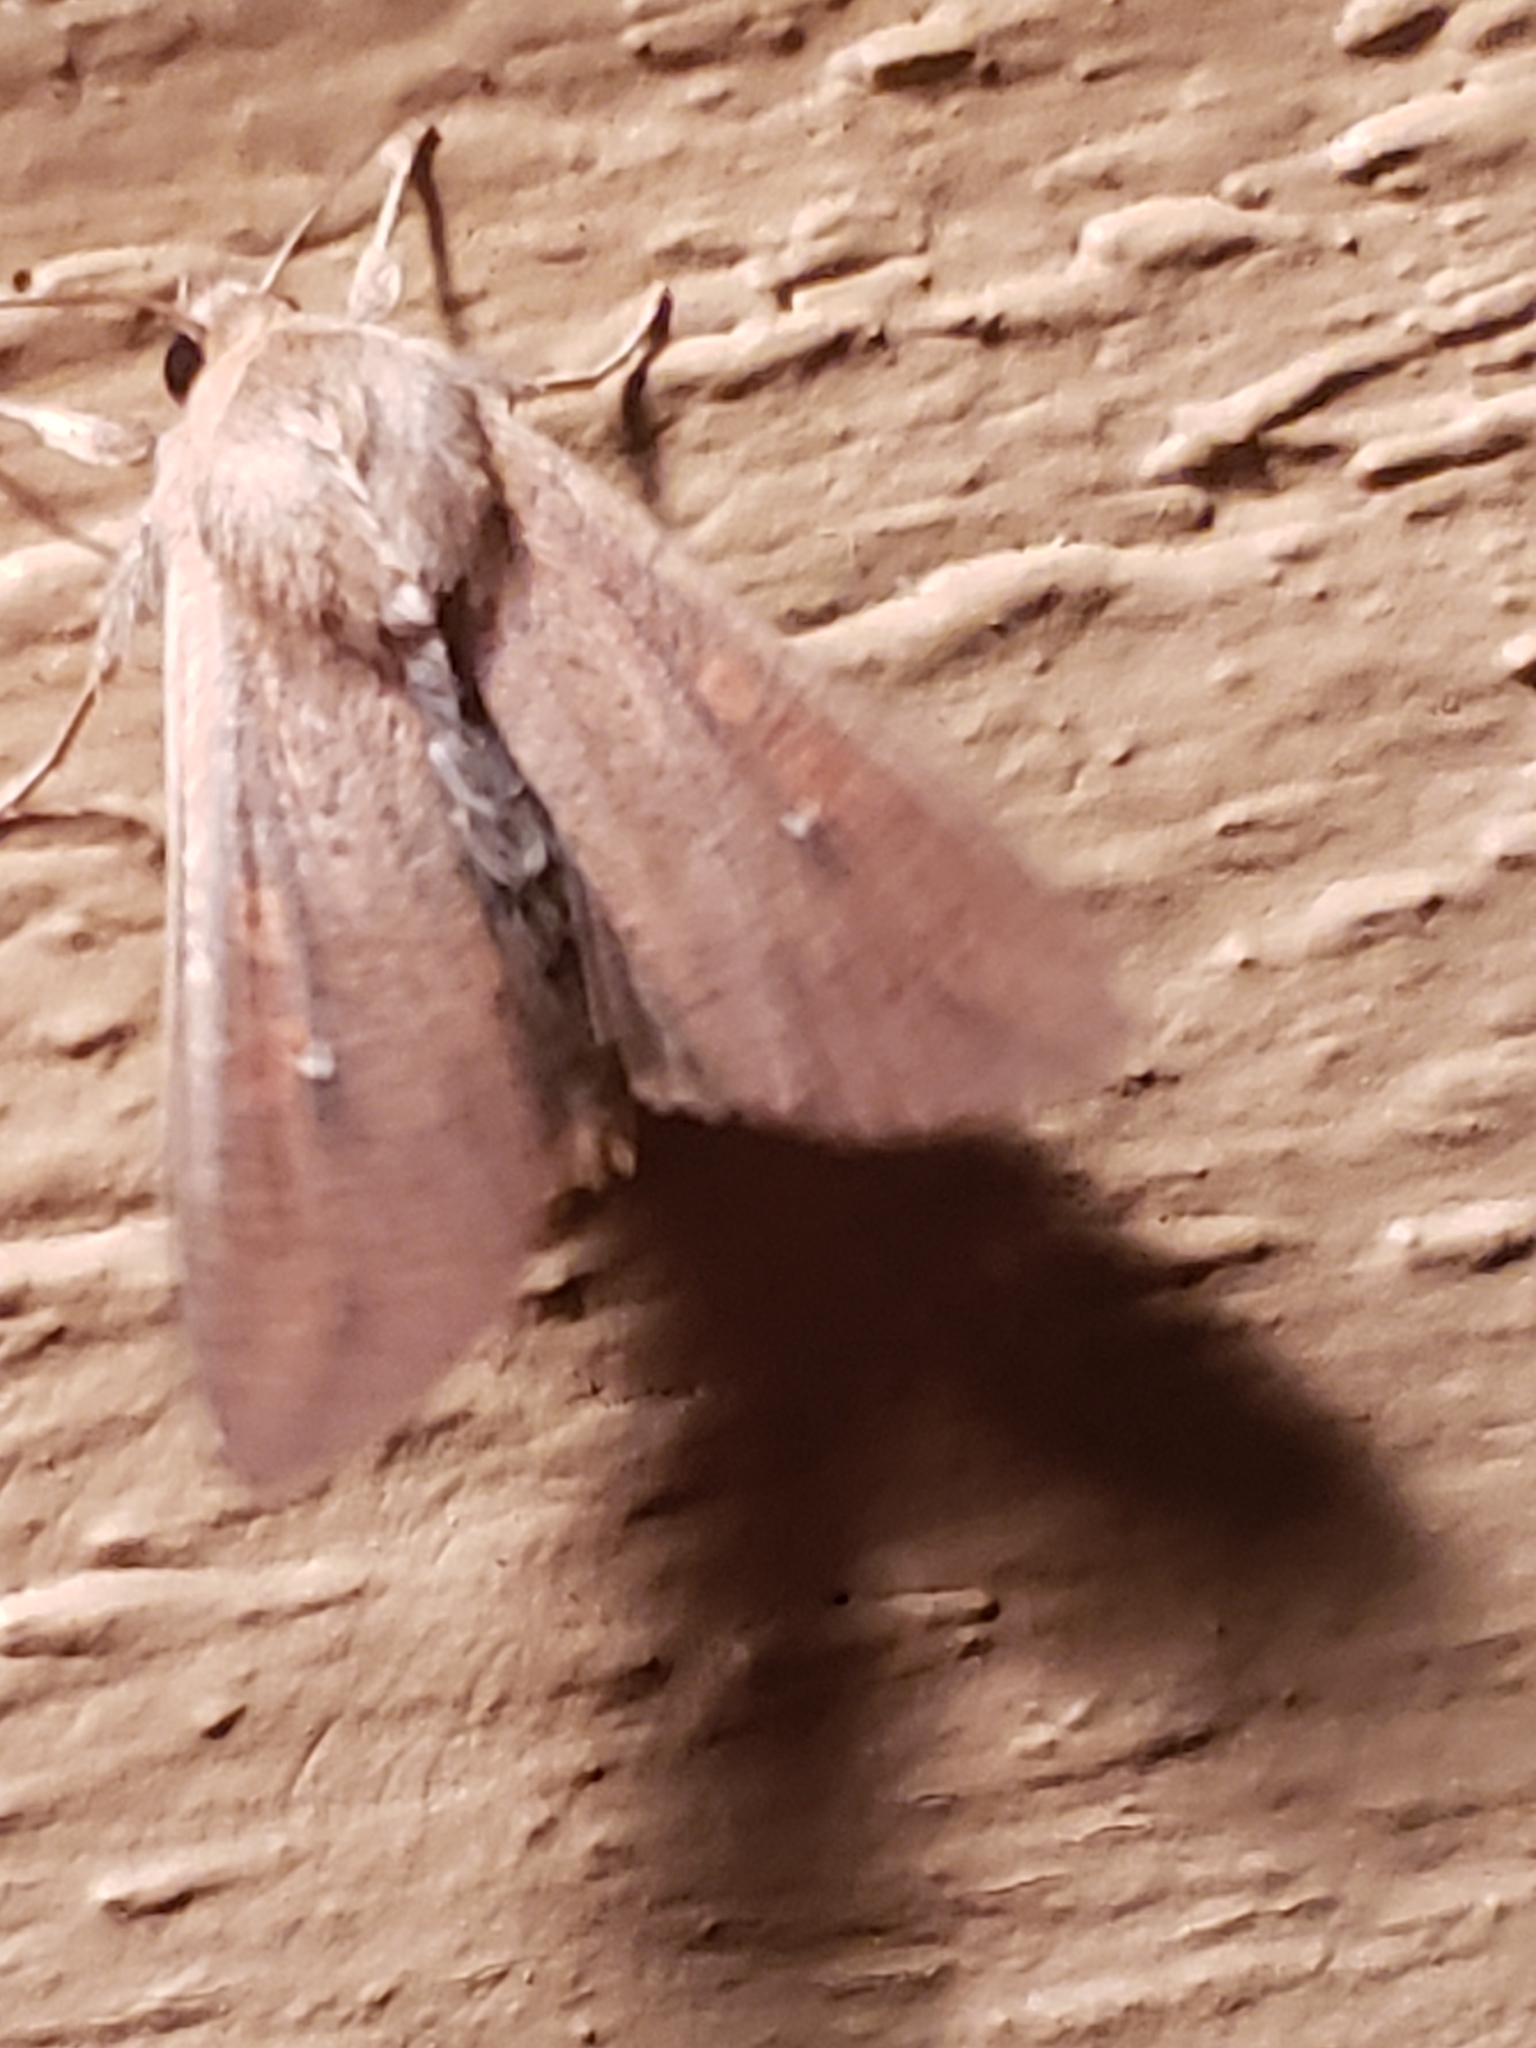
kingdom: Animalia
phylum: Arthropoda
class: Insecta
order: Lepidoptera
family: Noctuidae
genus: Mythimna
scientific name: Mythimna unipuncta
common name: White-speck
